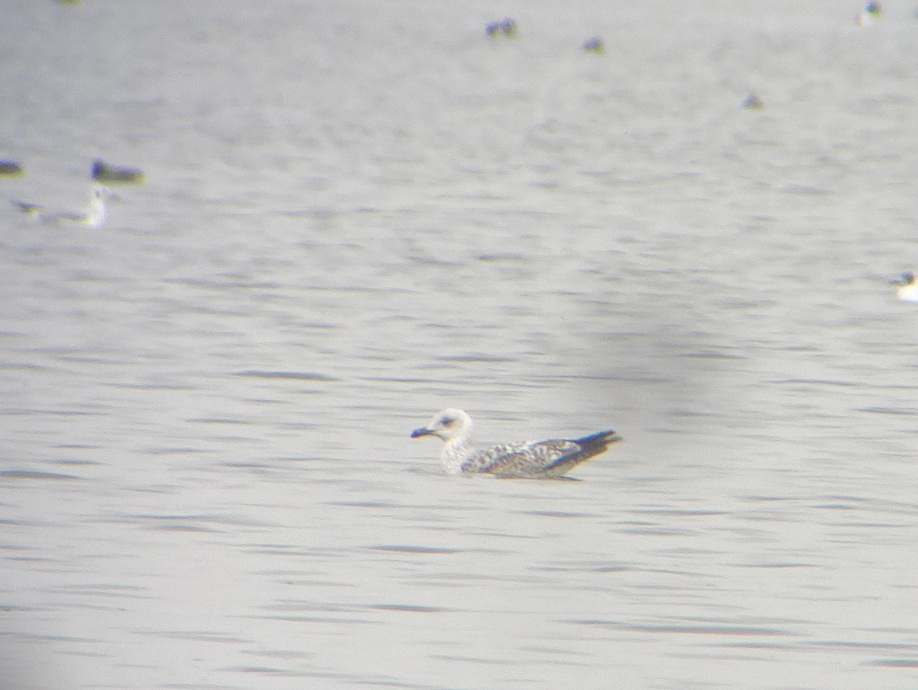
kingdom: Animalia
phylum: Chordata
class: Aves
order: Charadriiformes
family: Laridae
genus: Larus
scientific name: Larus michahellis
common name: Yellow-legged gull
